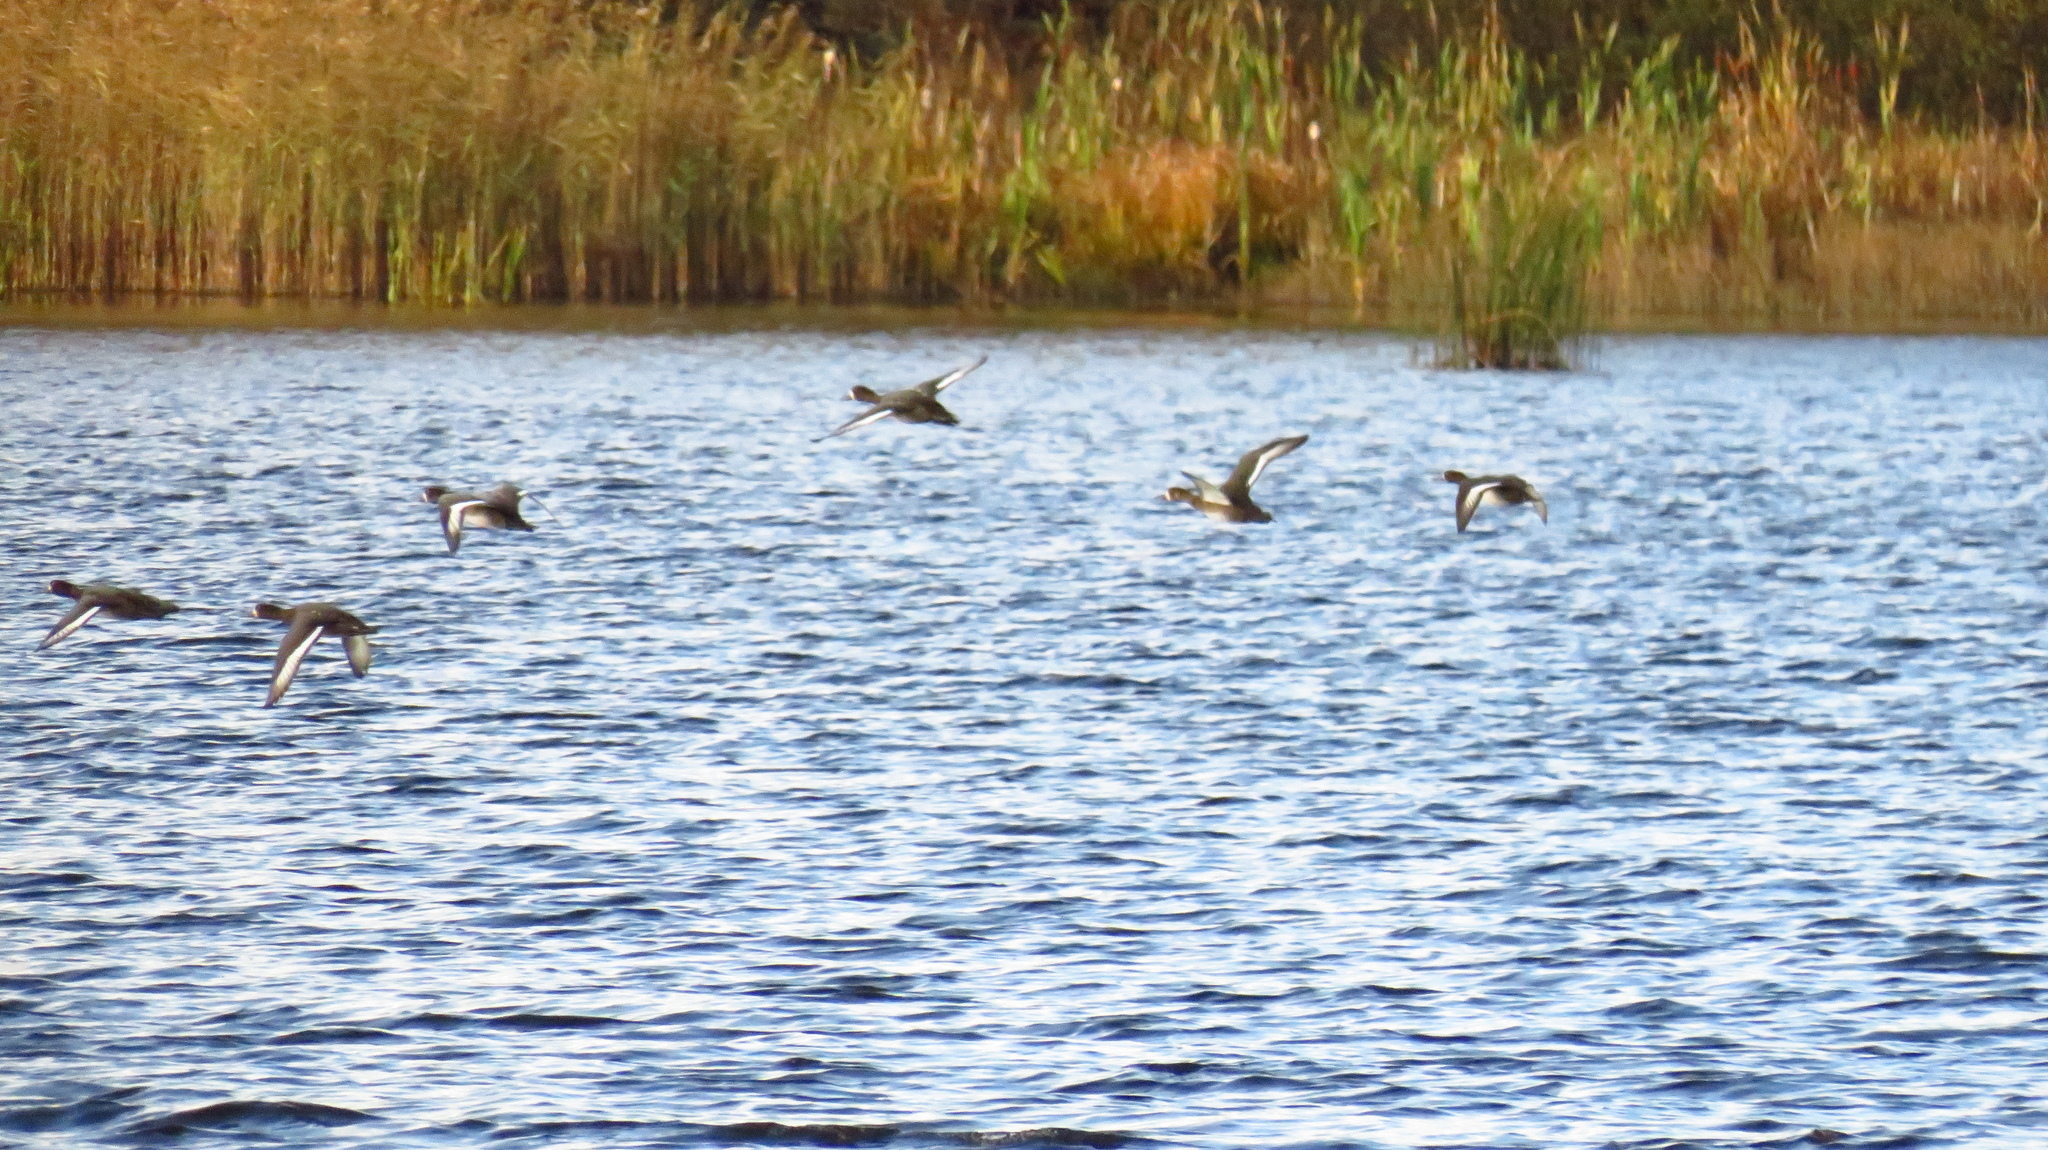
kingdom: Animalia
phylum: Chordata
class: Aves
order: Anseriformes
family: Anatidae
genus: Aythya
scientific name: Aythya marila
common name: Greater scaup
